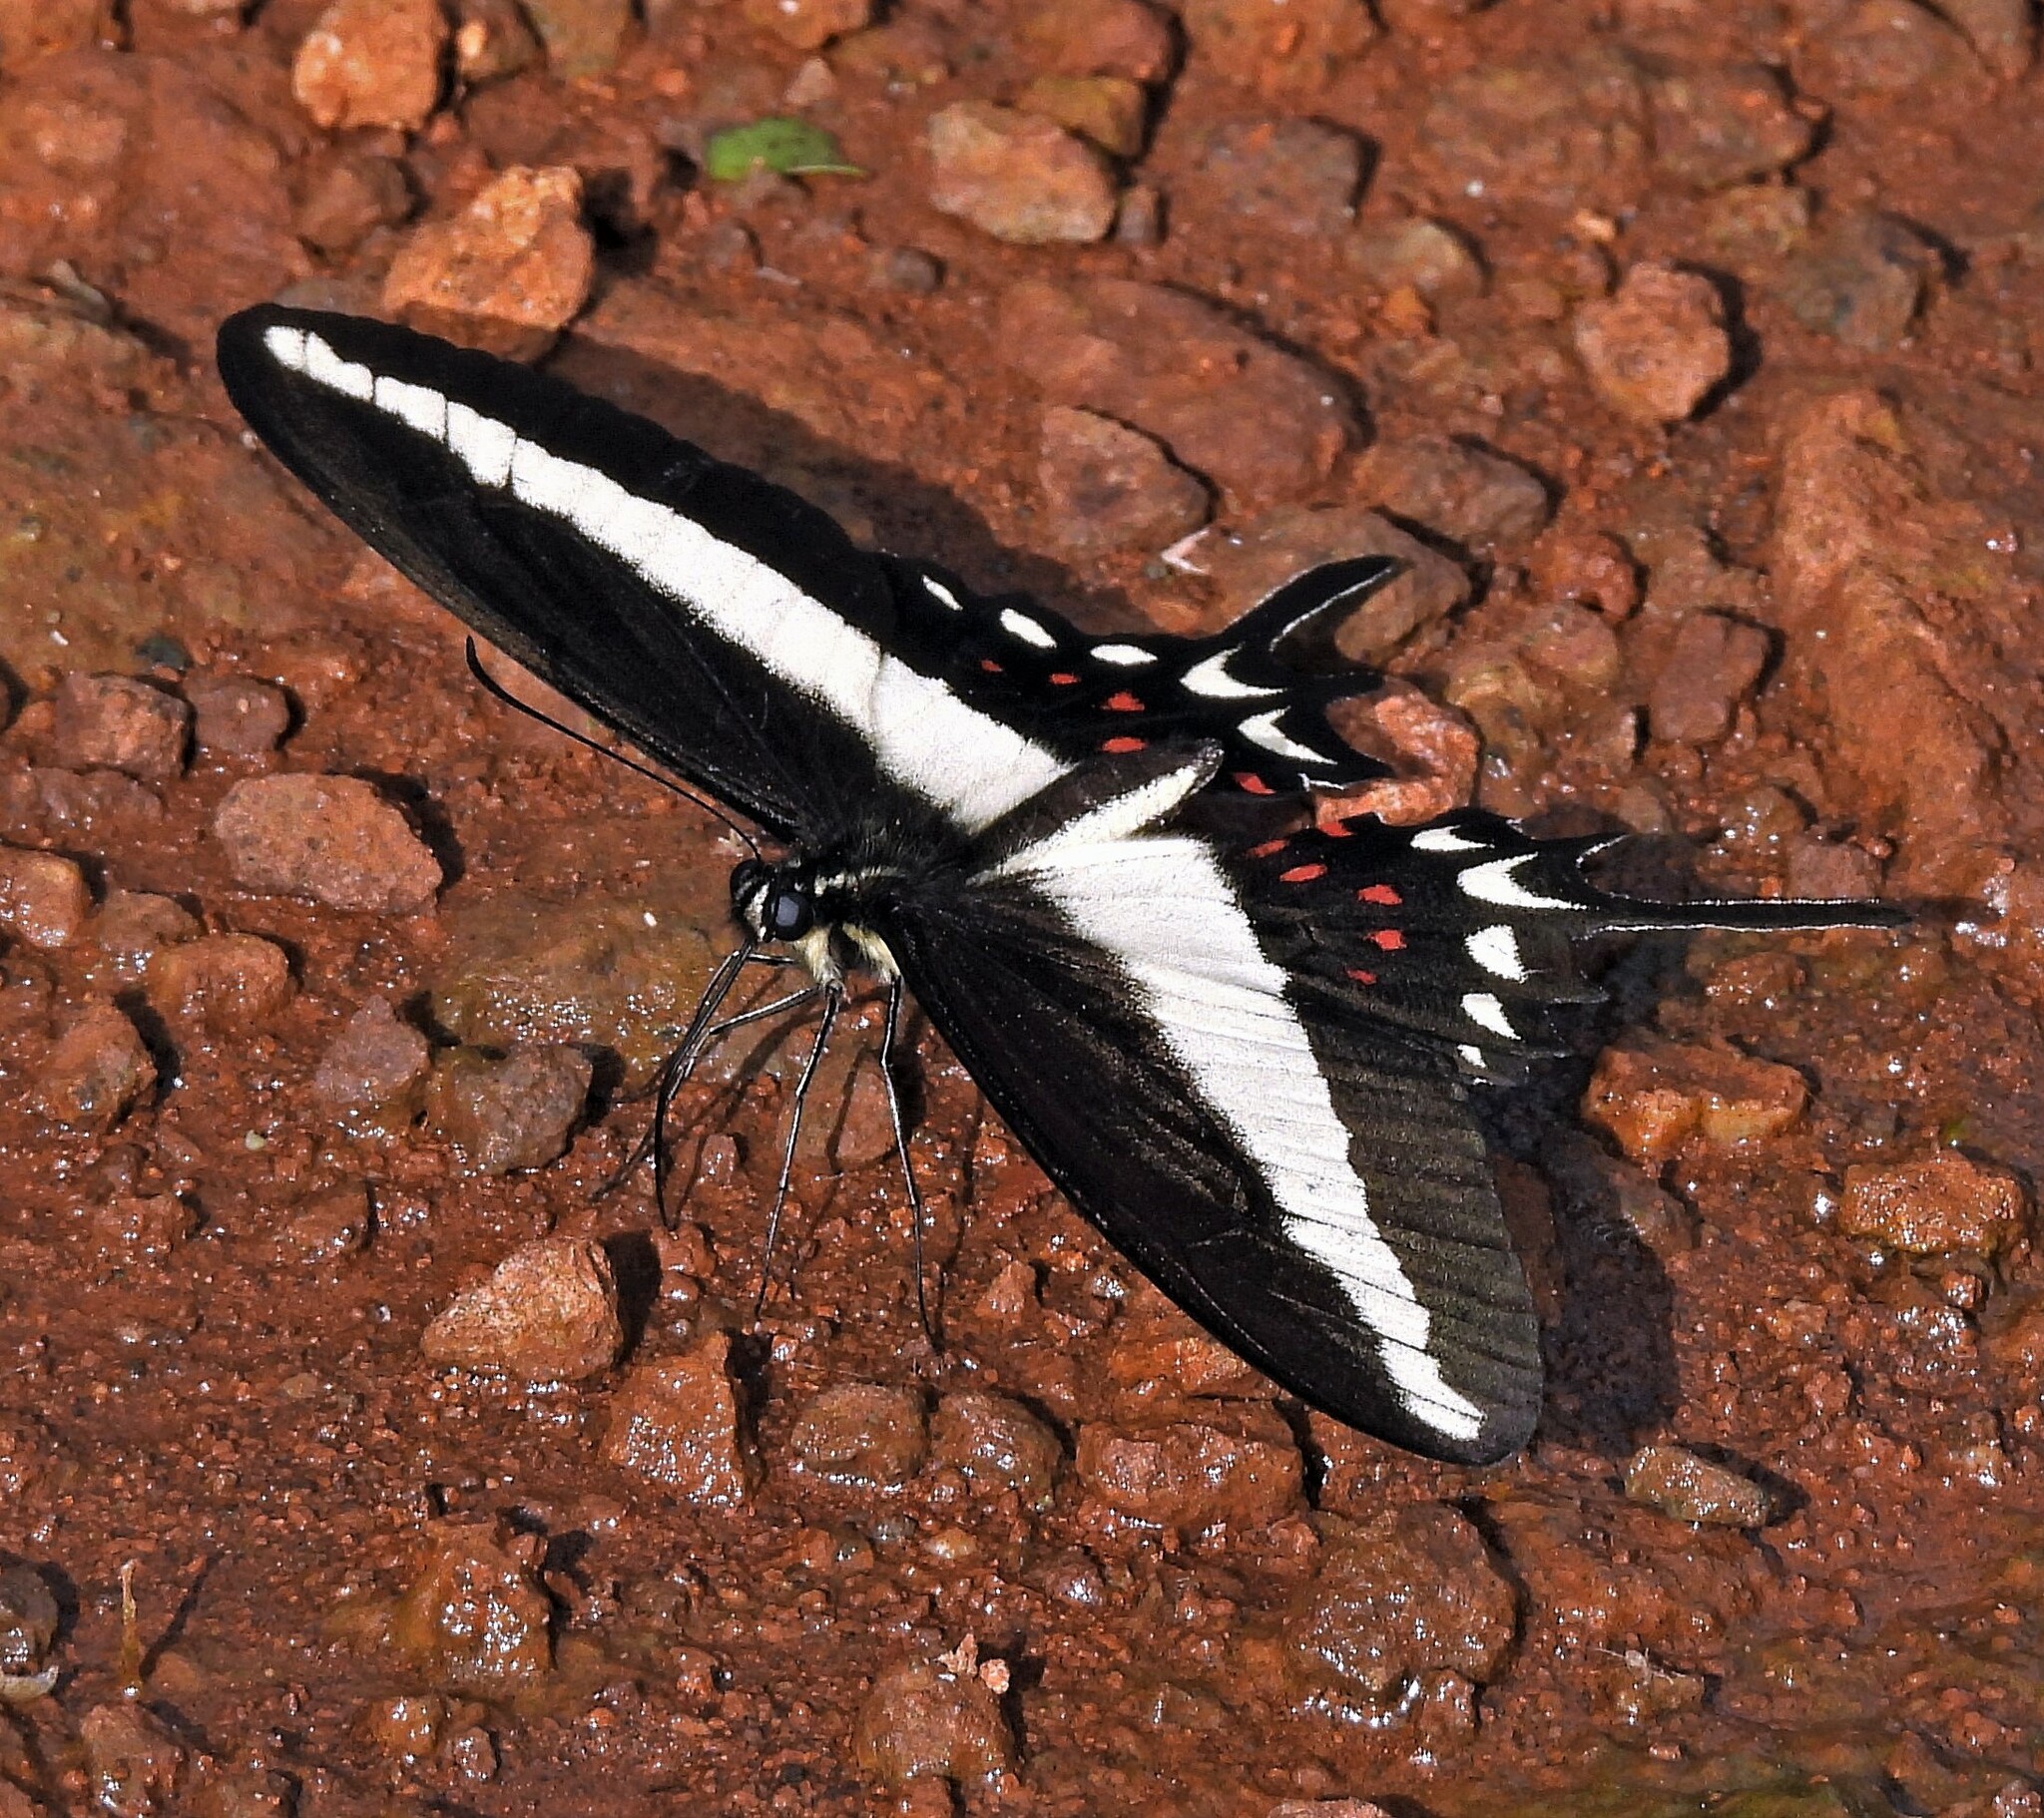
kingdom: Animalia
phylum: Arthropoda
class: Insecta
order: Lepidoptera
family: Papilionidae
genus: Heraclides
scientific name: Heraclides hectorides
